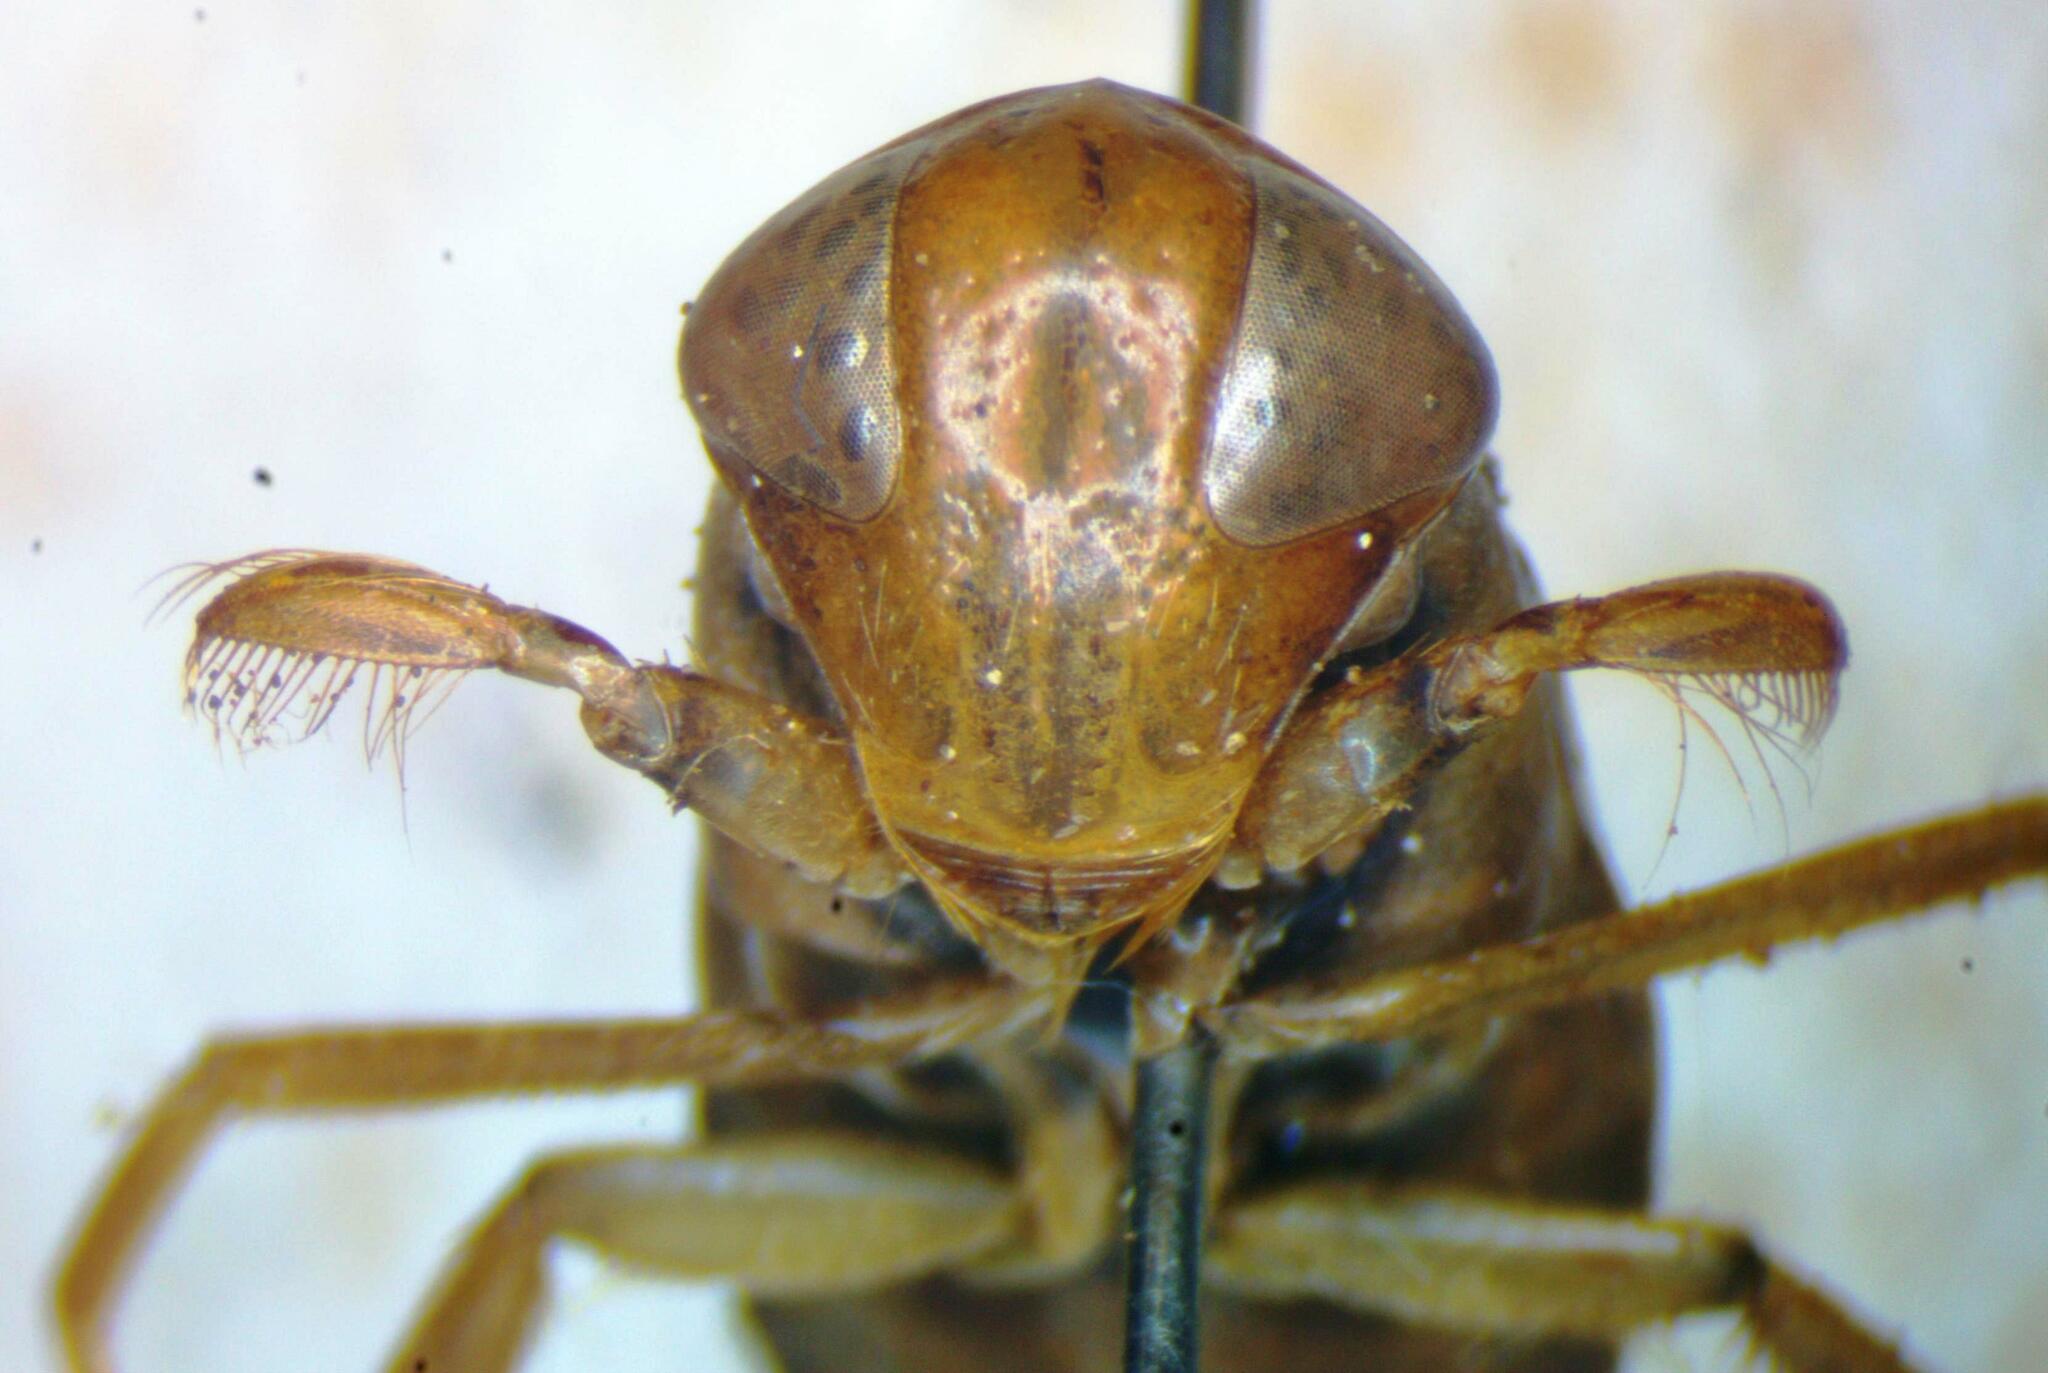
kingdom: Animalia
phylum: Arthropoda
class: Insecta
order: Hemiptera
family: Corixidae
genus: Corixa
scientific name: Corixa punctata
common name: Punctate corixa
